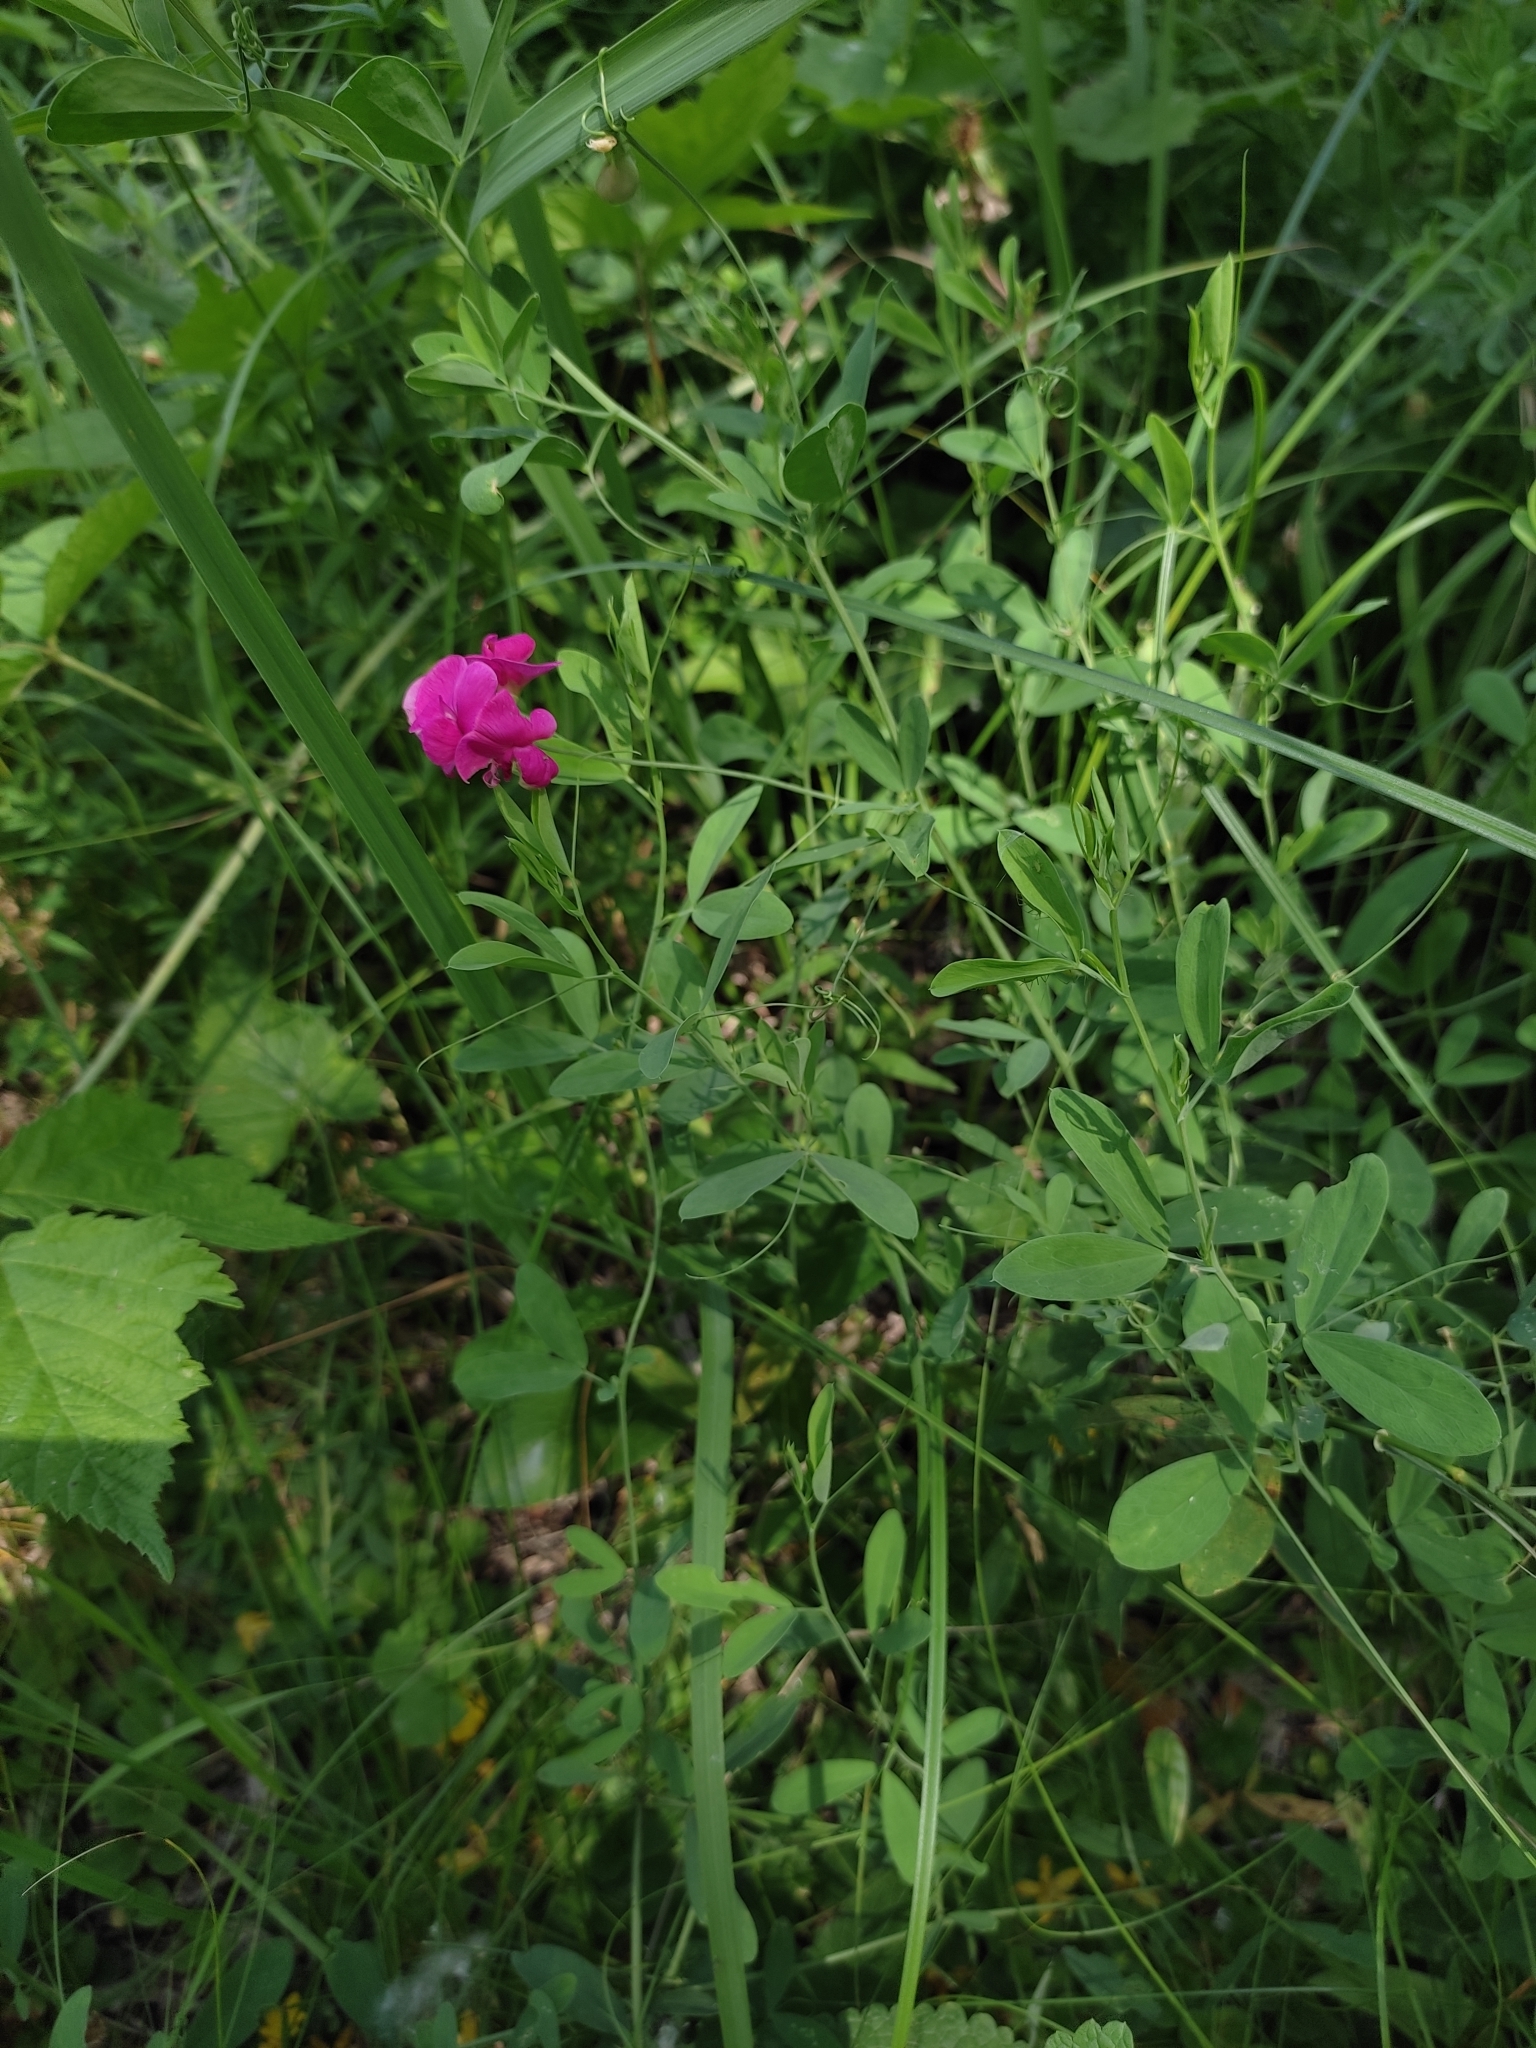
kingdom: Plantae
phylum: Tracheophyta
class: Magnoliopsida
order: Fabales
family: Fabaceae
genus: Lathyrus
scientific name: Lathyrus tuberosus
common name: Tuberous pea
